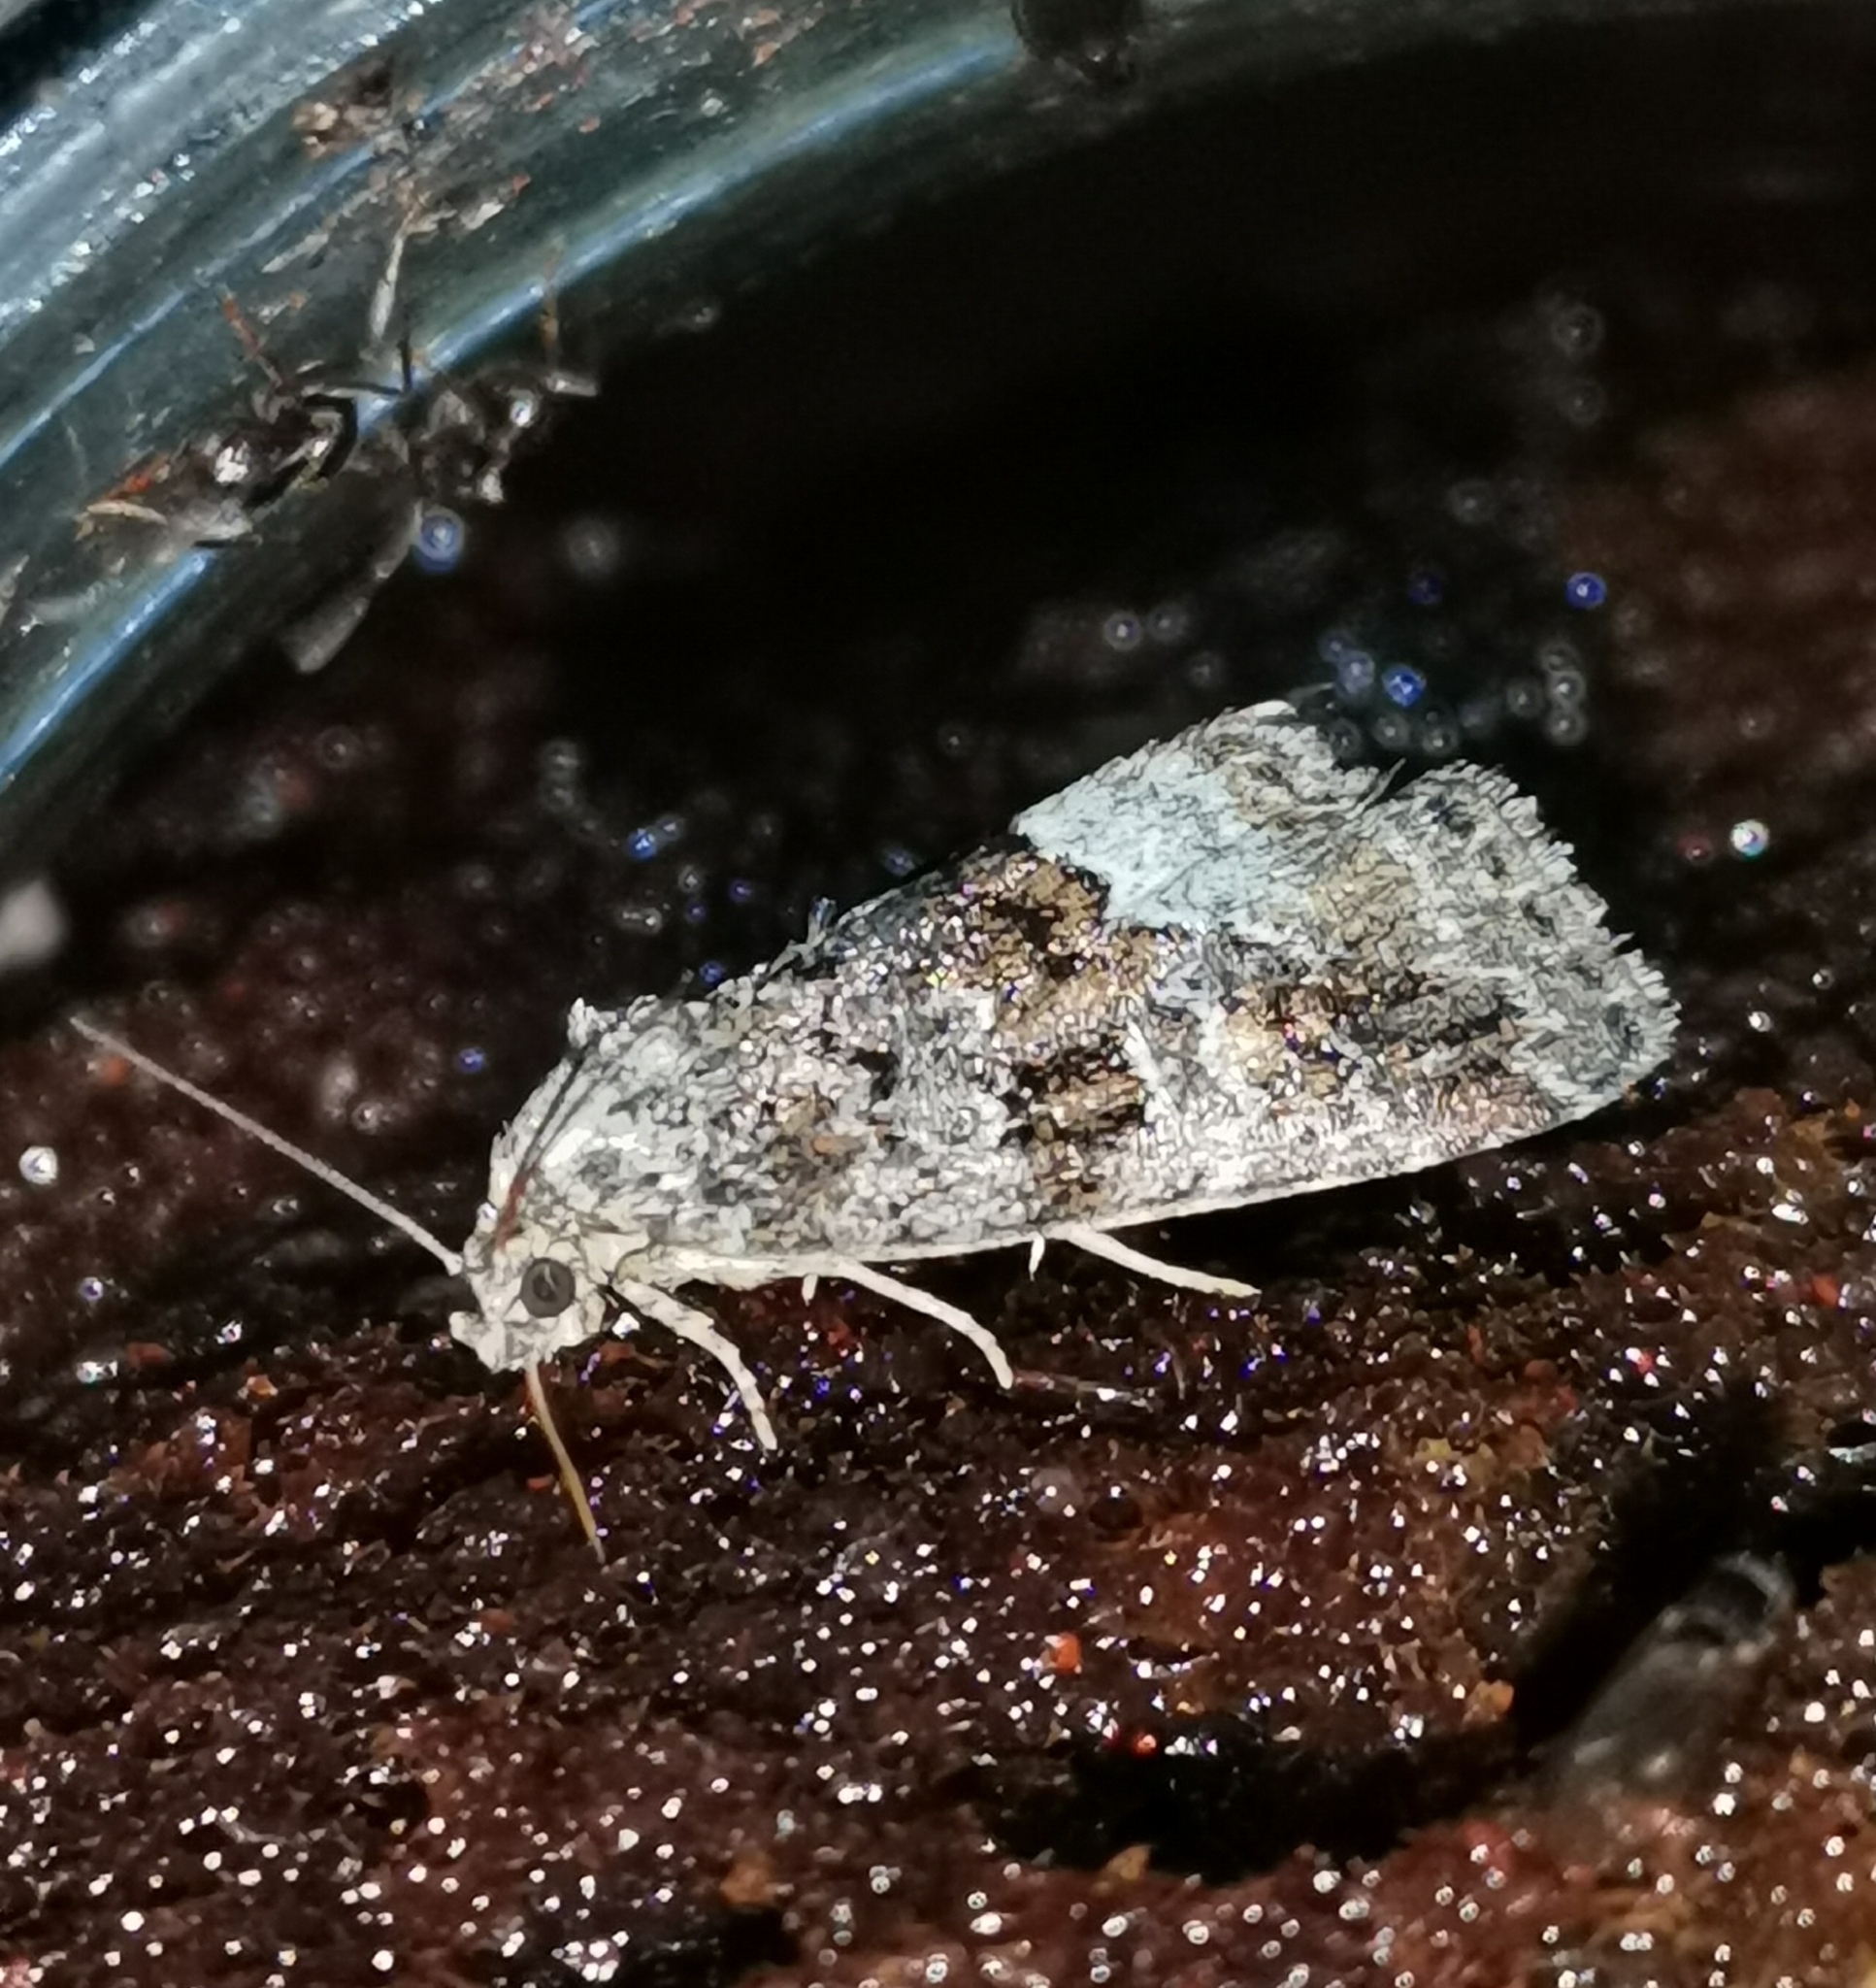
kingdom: Animalia
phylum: Arthropoda
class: Insecta
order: Lepidoptera
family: Noctuidae
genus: Deltote
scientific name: Deltote pygarga
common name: Marbled white spot
